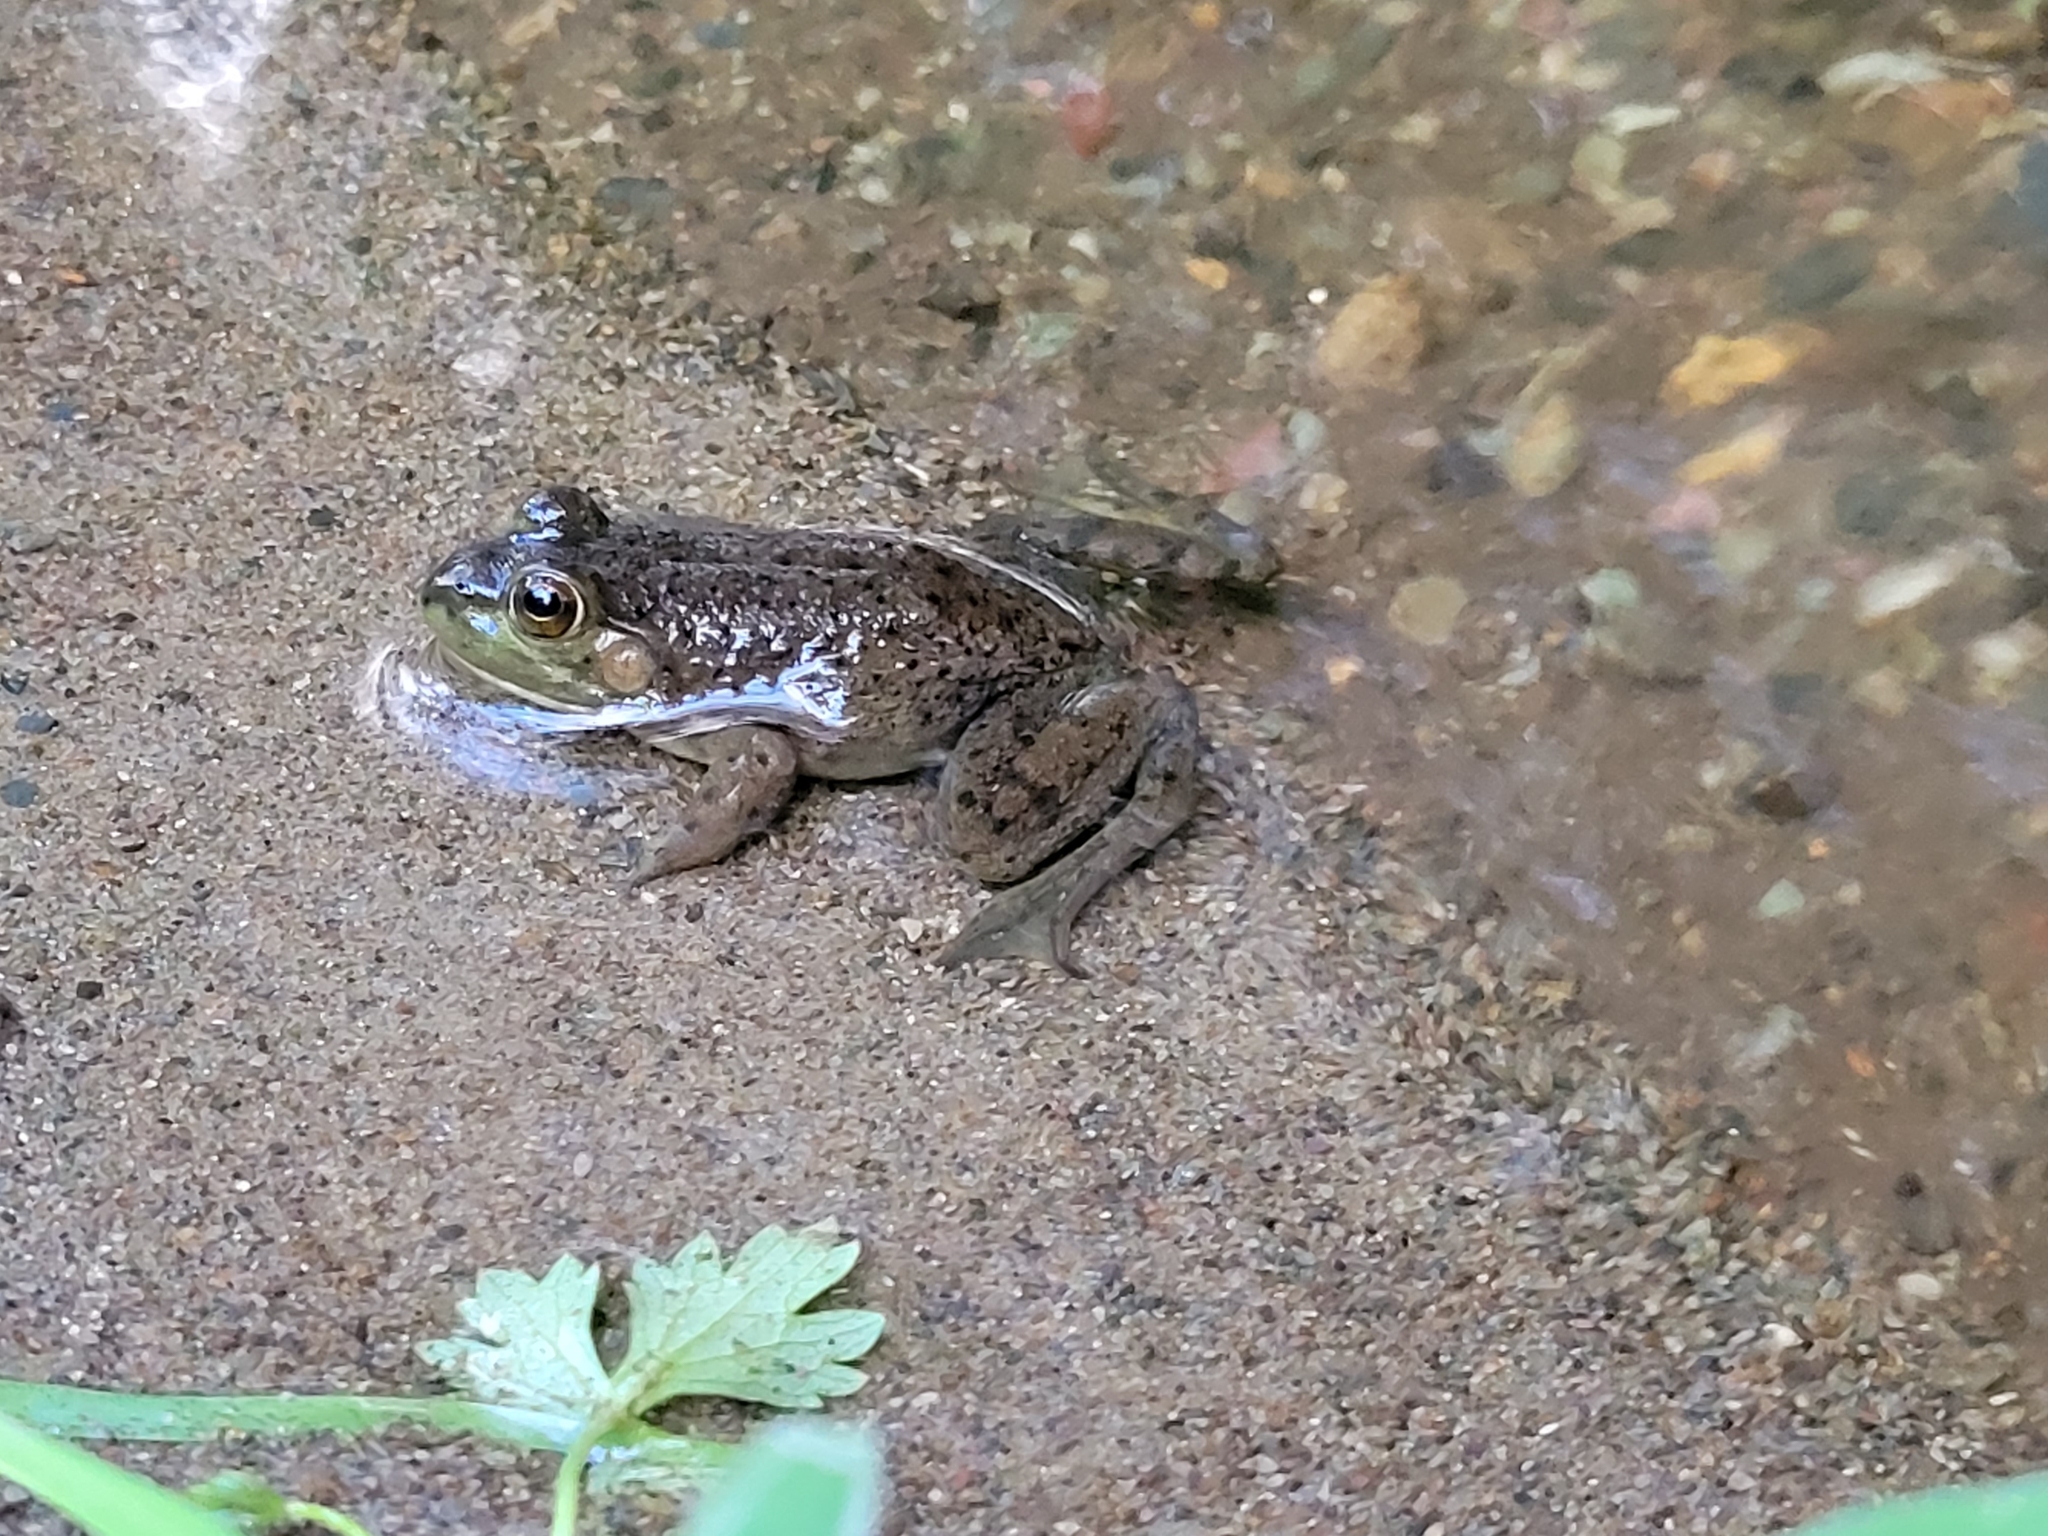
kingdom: Animalia
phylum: Chordata
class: Amphibia
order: Anura
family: Ranidae
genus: Lithobates
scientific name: Lithobates catesbeianus
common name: American bullfrog
